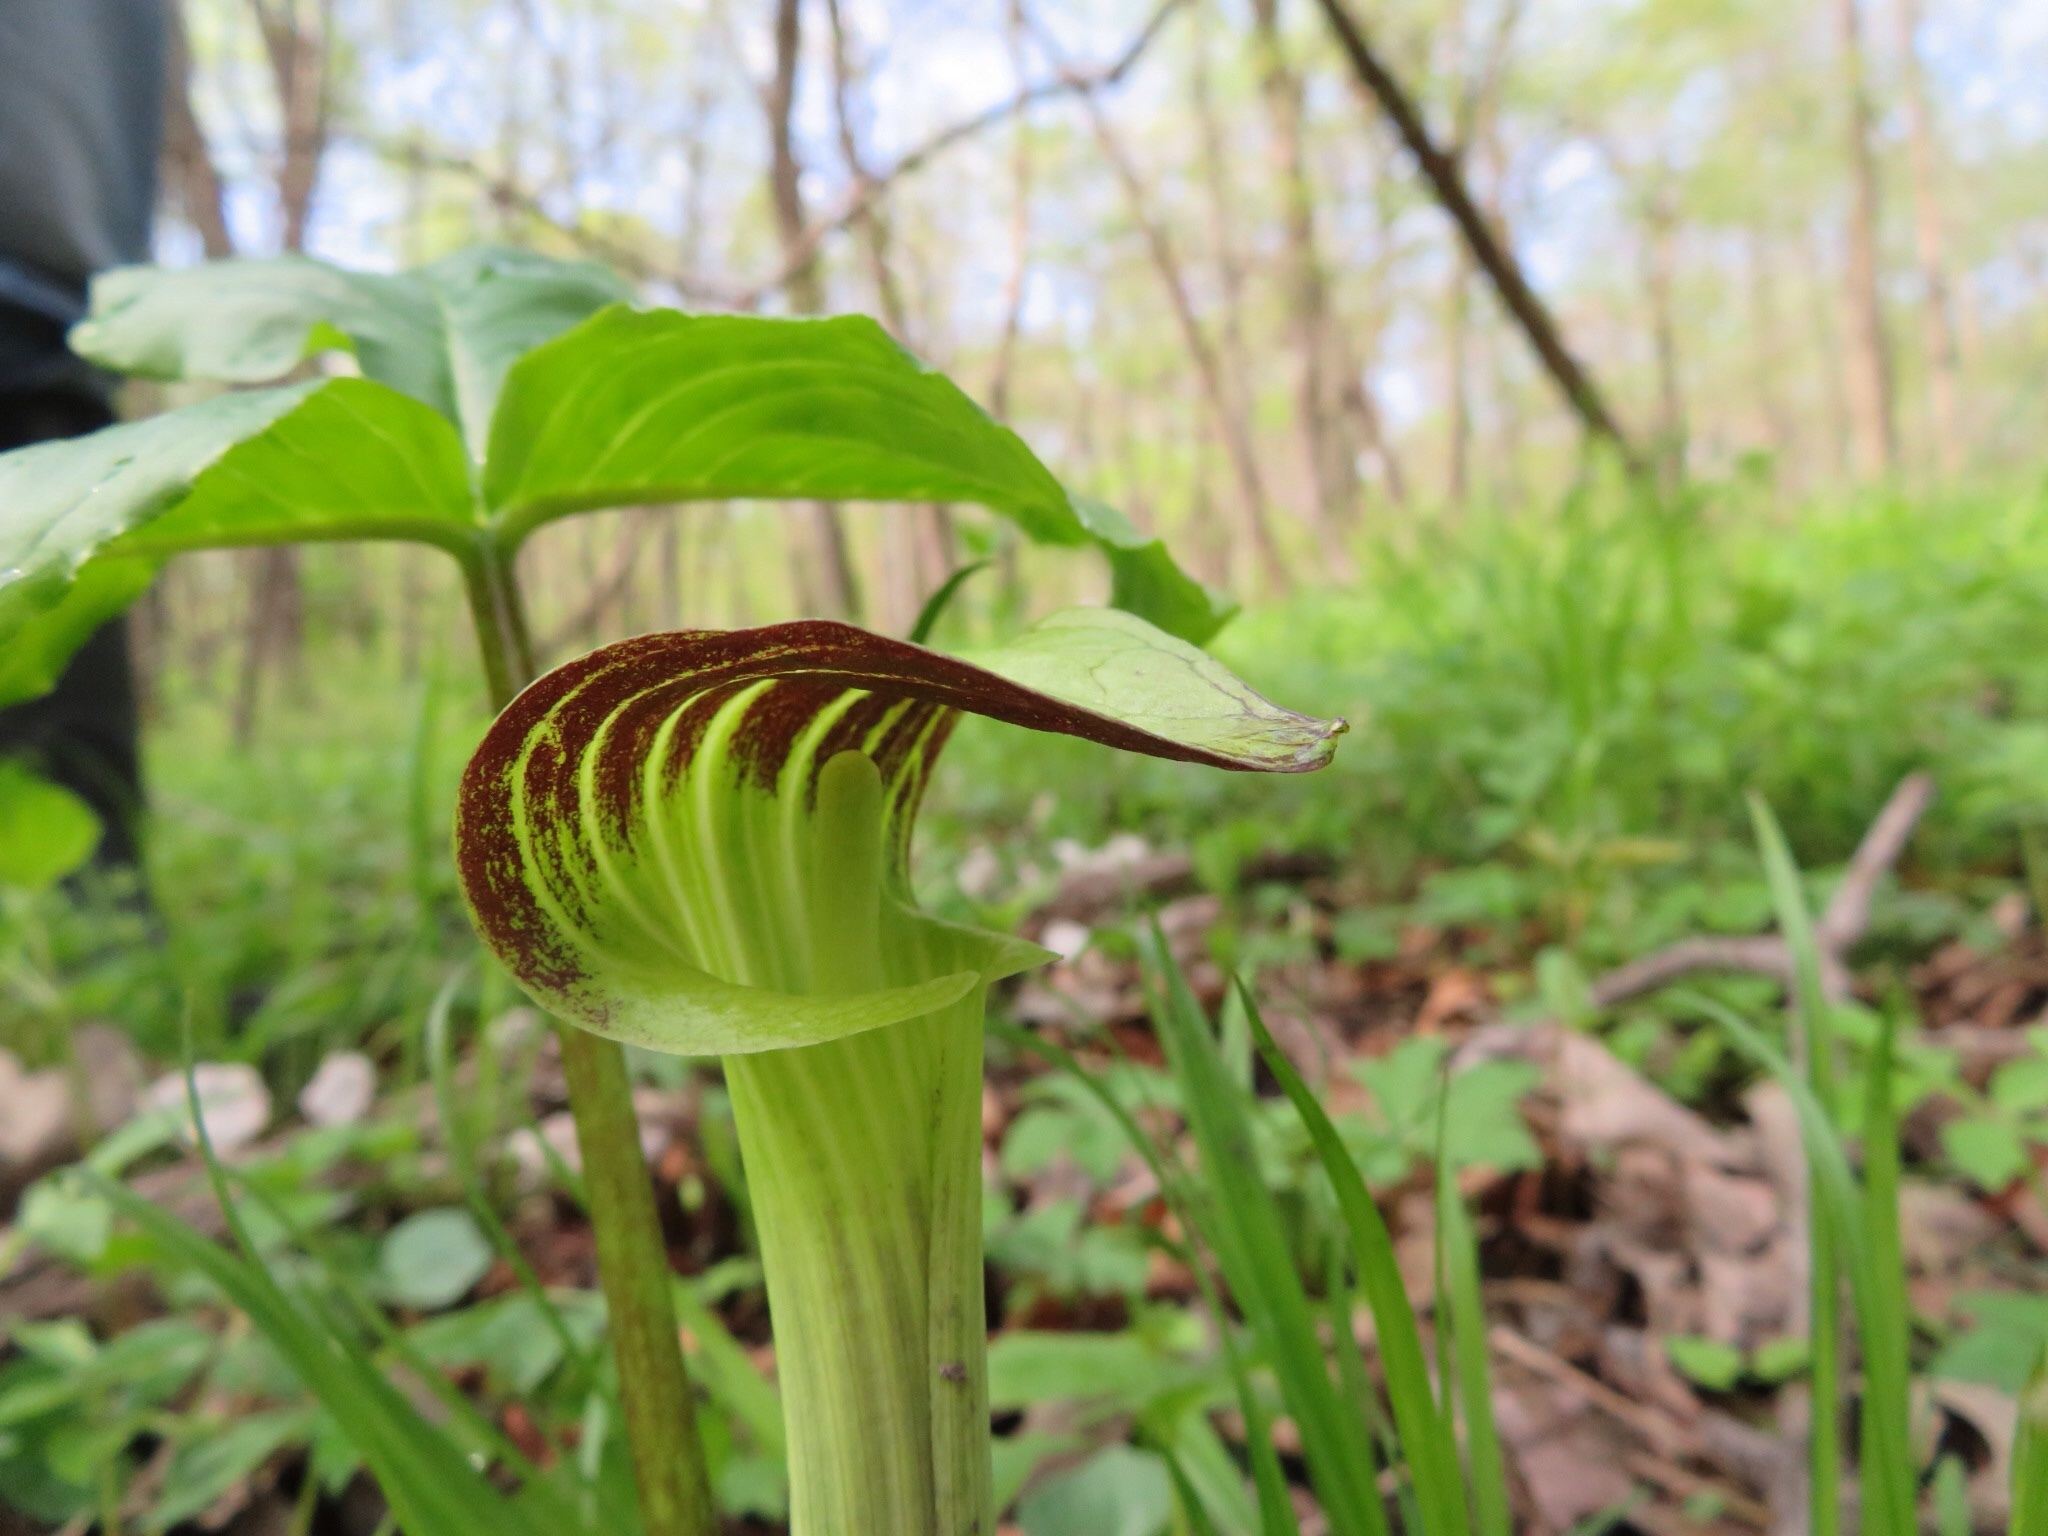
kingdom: Plantae
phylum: Tracheophyta
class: Liliopsida
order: Alismatales
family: Araceae
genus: Arisaema
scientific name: Arisaema triphyllum
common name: Jack-in-the-pulpit
